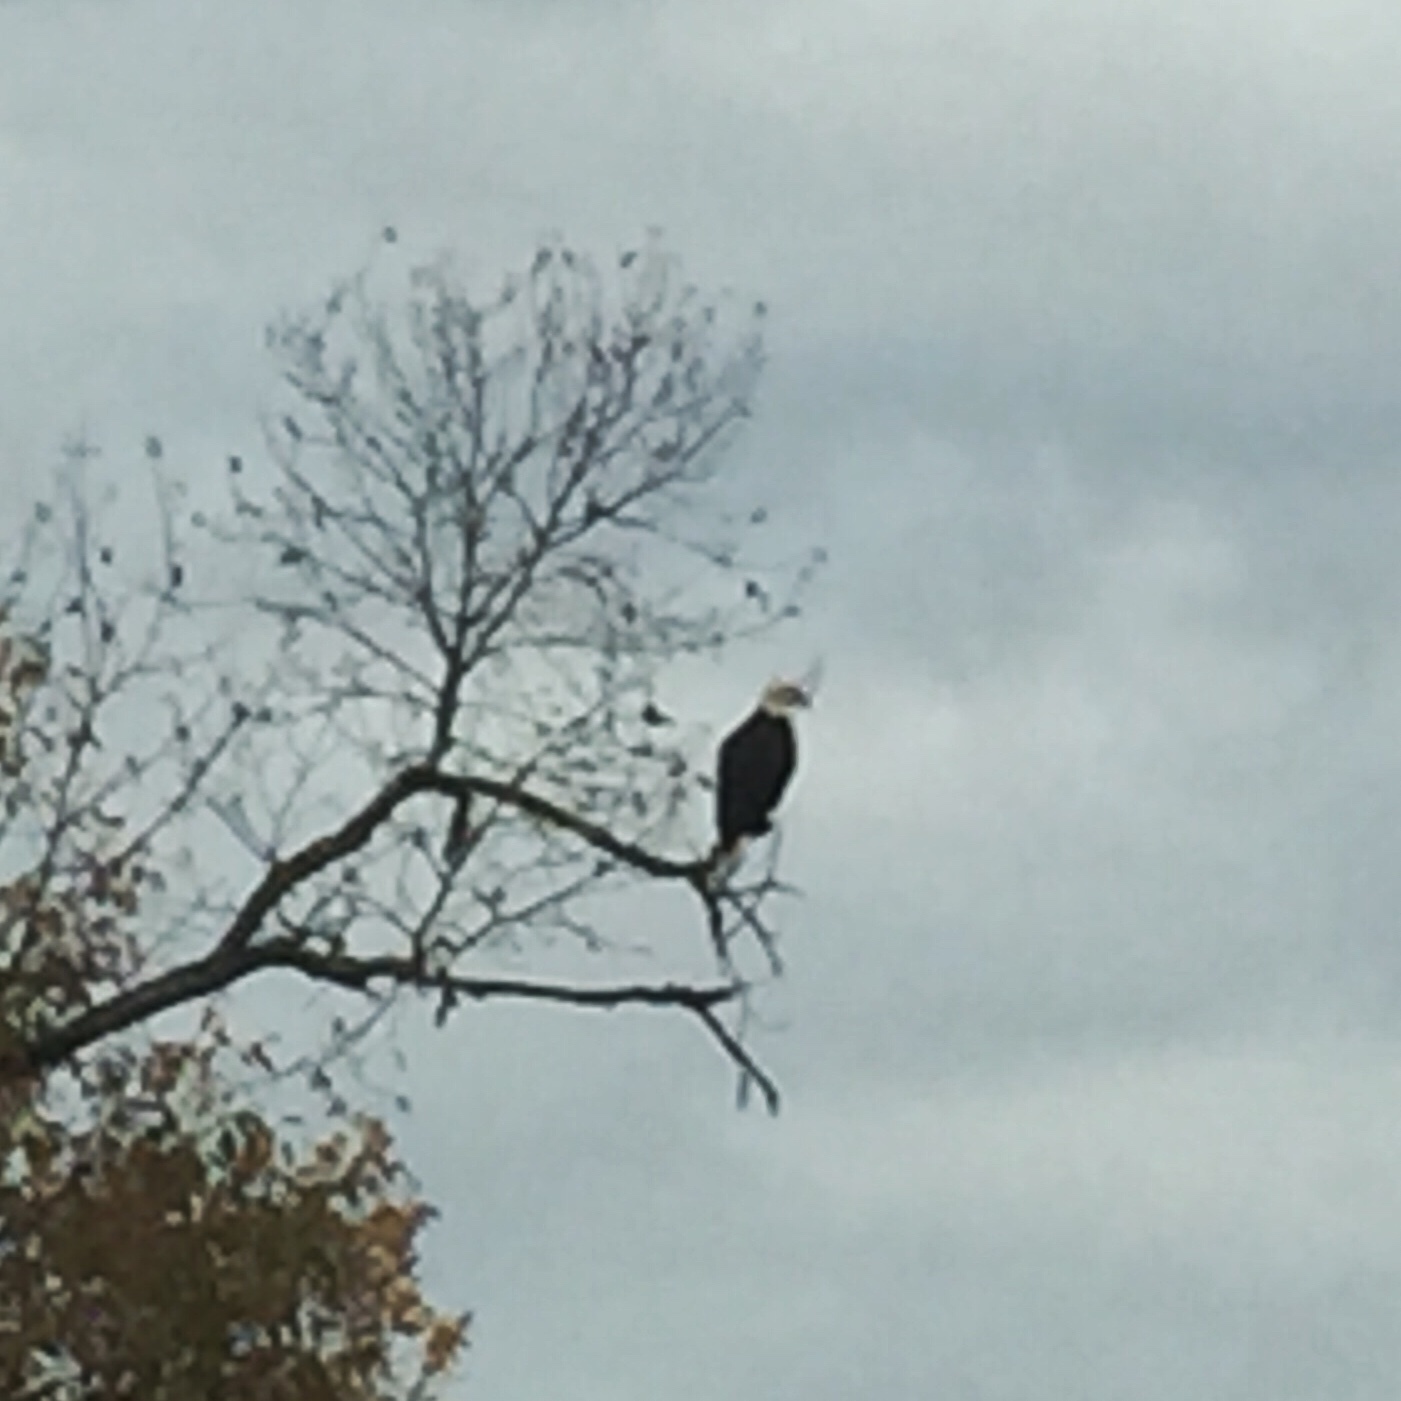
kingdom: Animalia
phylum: Chordata
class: Aves
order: Accipitriformes
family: Accipitridae
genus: Haliaeetus
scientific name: Haliaeetus leucocephalus
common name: Bald eagle
